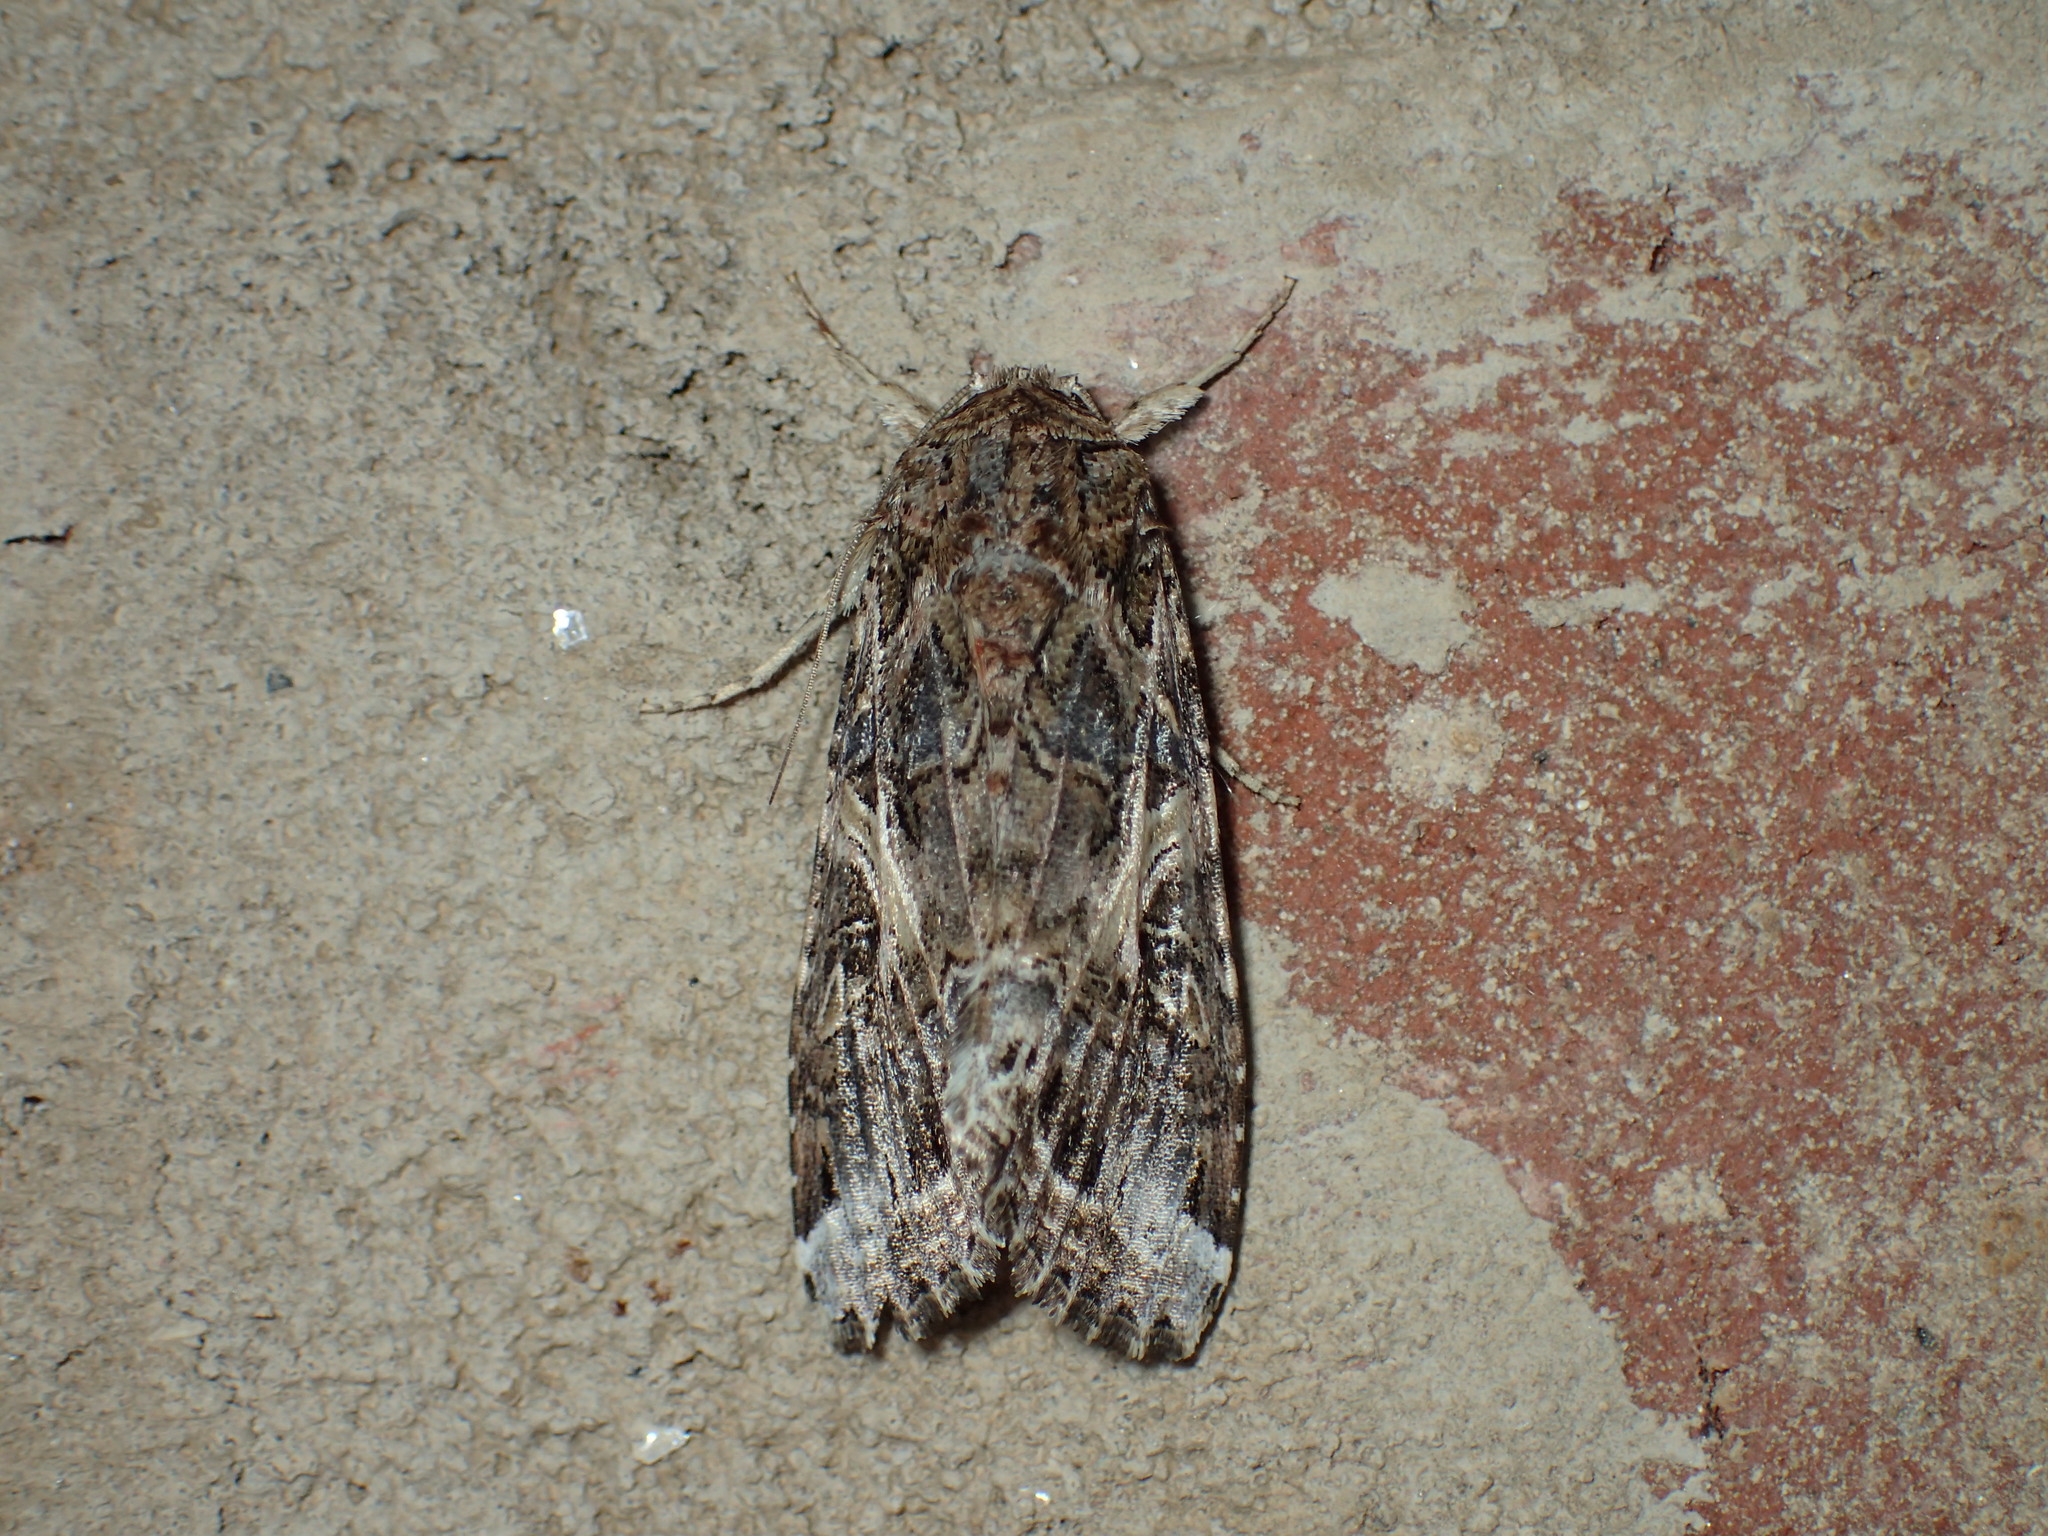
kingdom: Animalia
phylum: Arthropoda
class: Insecta
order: Lepidoptera
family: Noctuidae
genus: Spodoptera
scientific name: Spodoptera ornithogalli
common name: Yellow-striped armyworm
